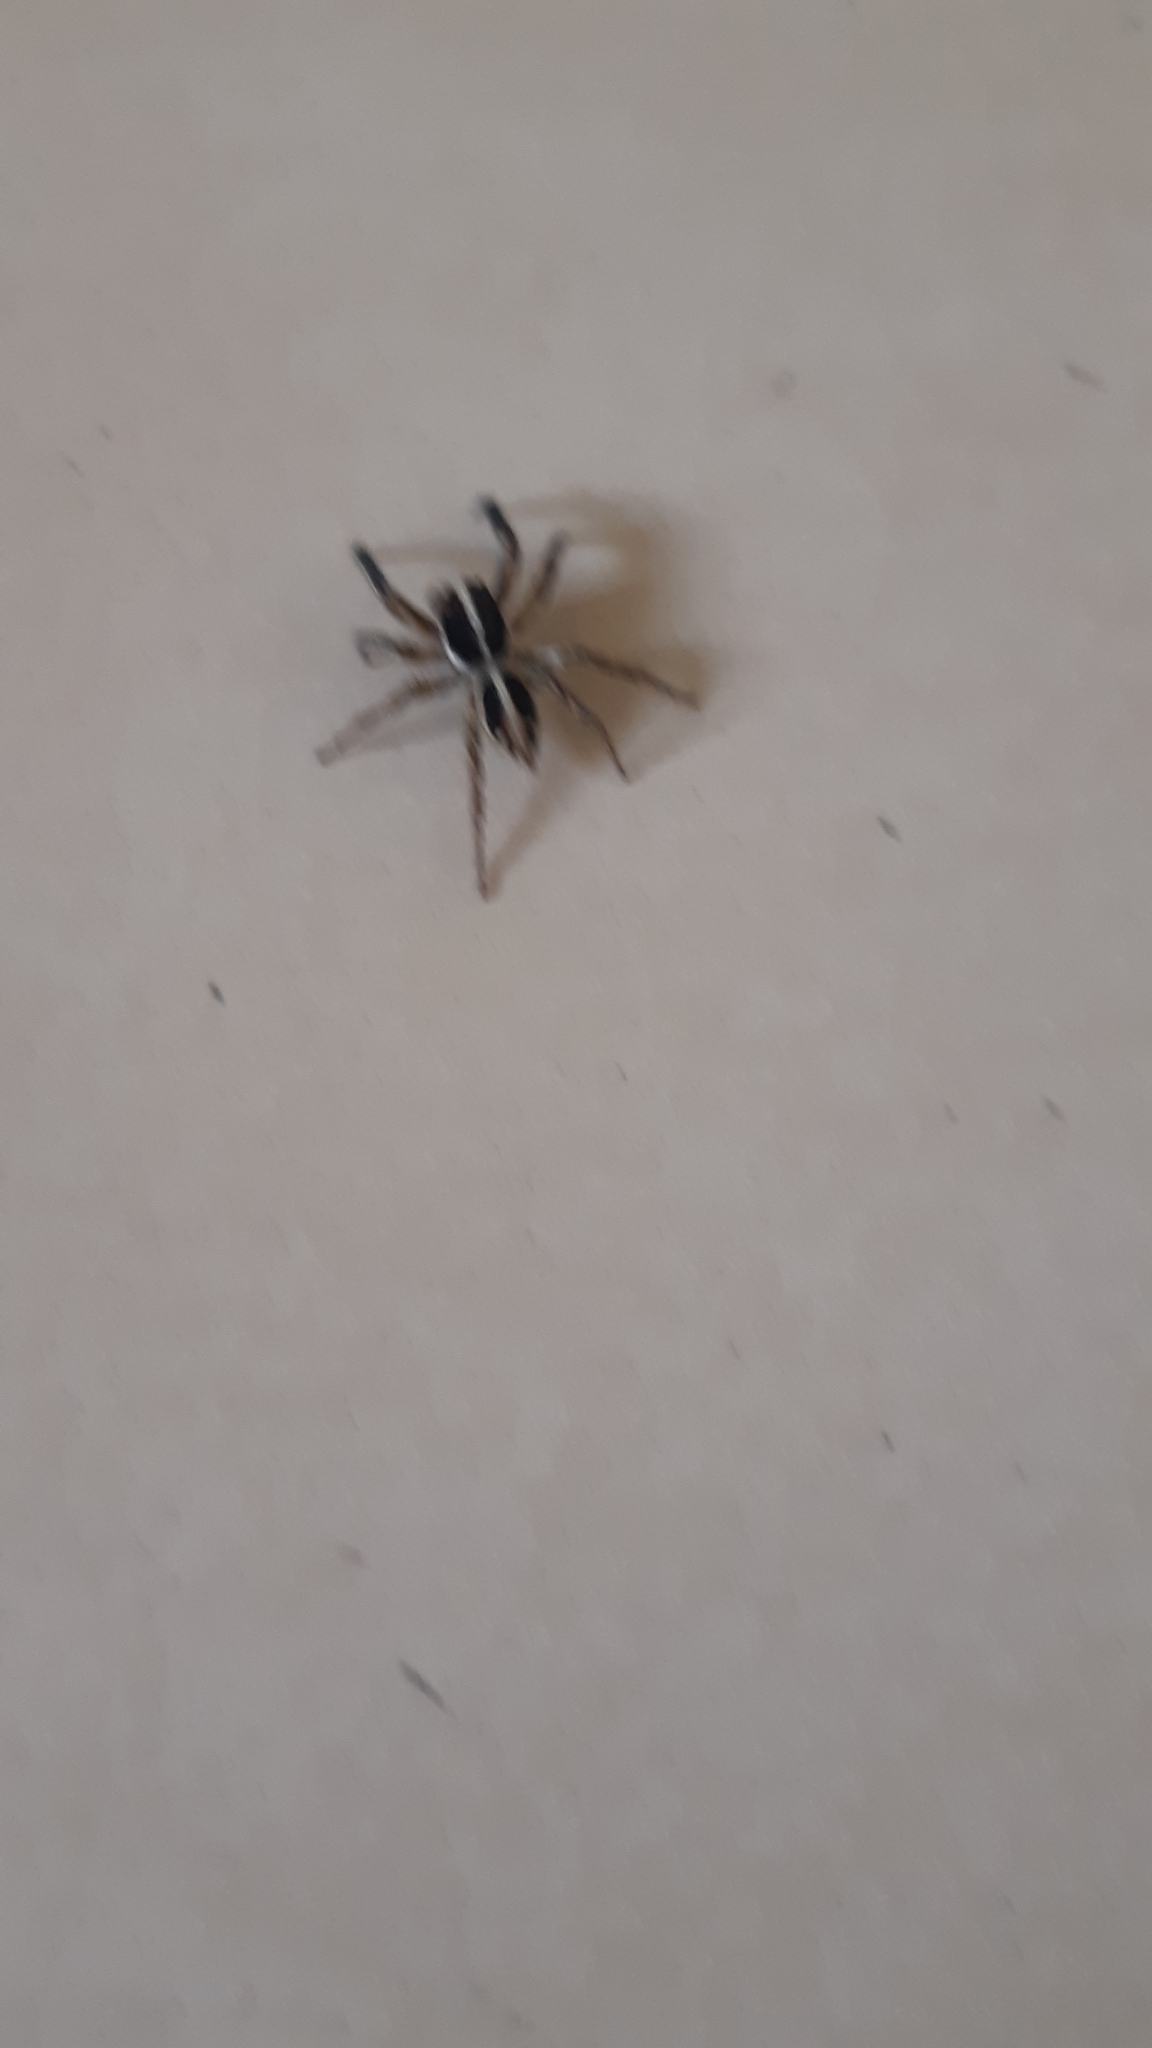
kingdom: Animalia
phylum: Arthropoda
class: Arachnida
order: Araneae
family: Salticidae
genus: Plexippus
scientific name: Plexippus paykulli
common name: Pantropical jumper
